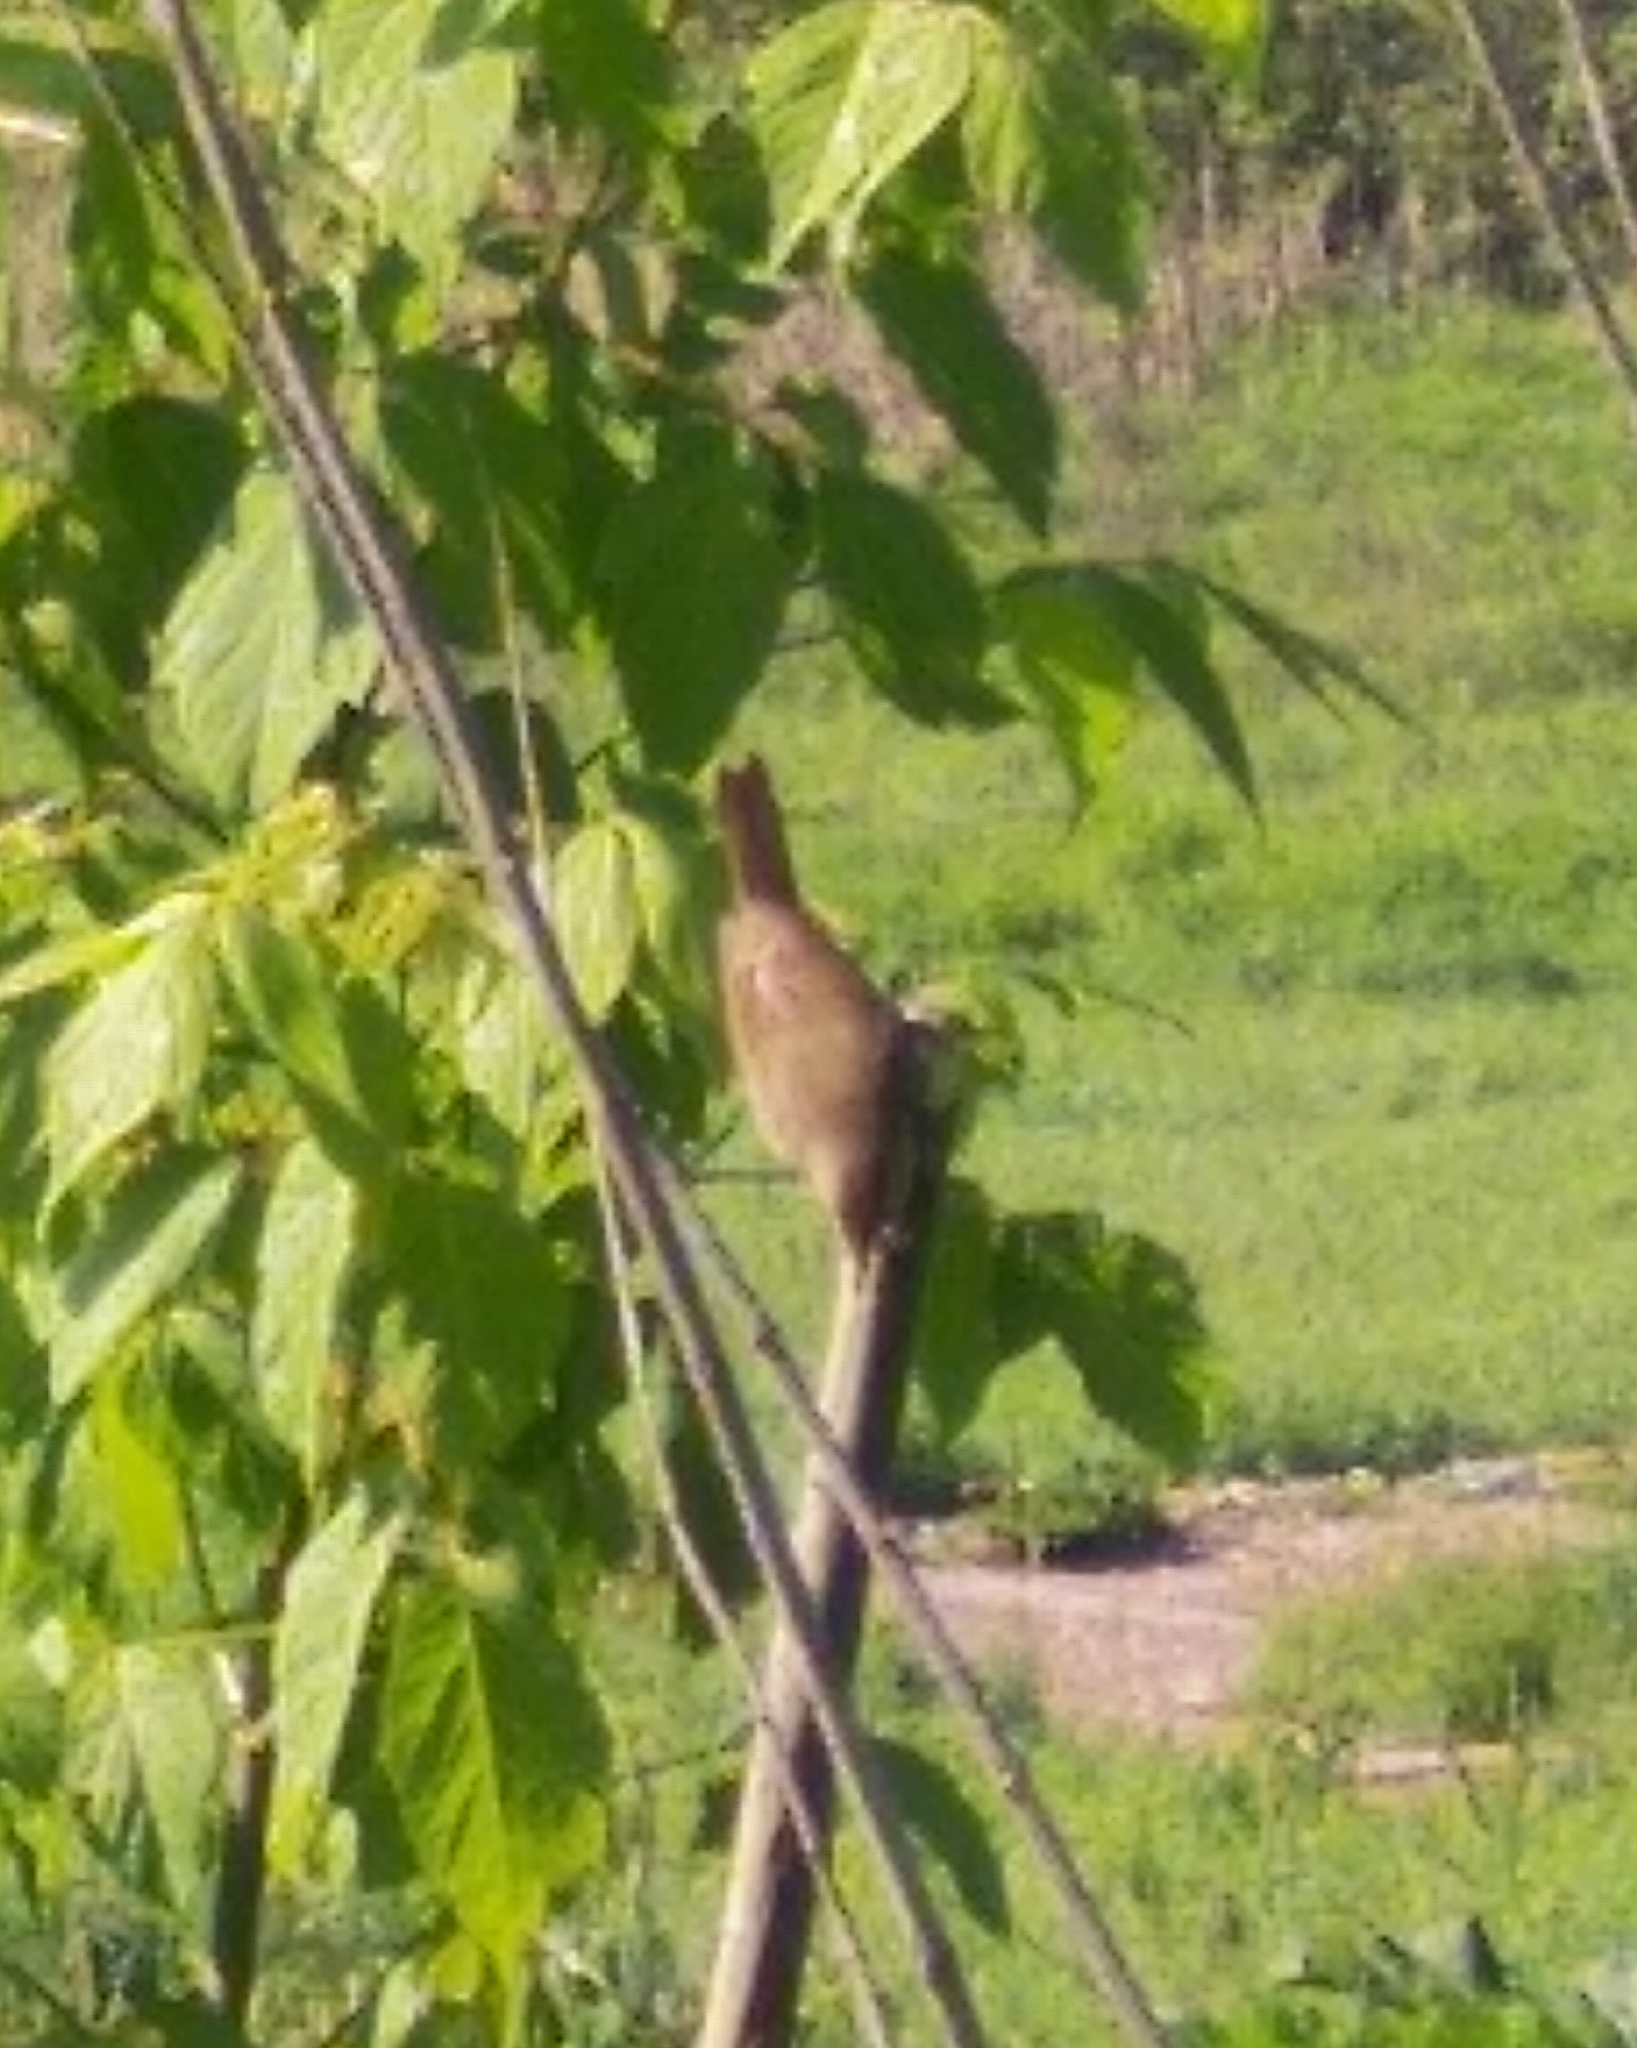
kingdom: Animalia
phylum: Chordata
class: Aves
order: Passeriformes
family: Acrocephalidae
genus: Acrocephalus
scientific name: Acrocephalus dumetorum
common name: Blyth's reed warbler
